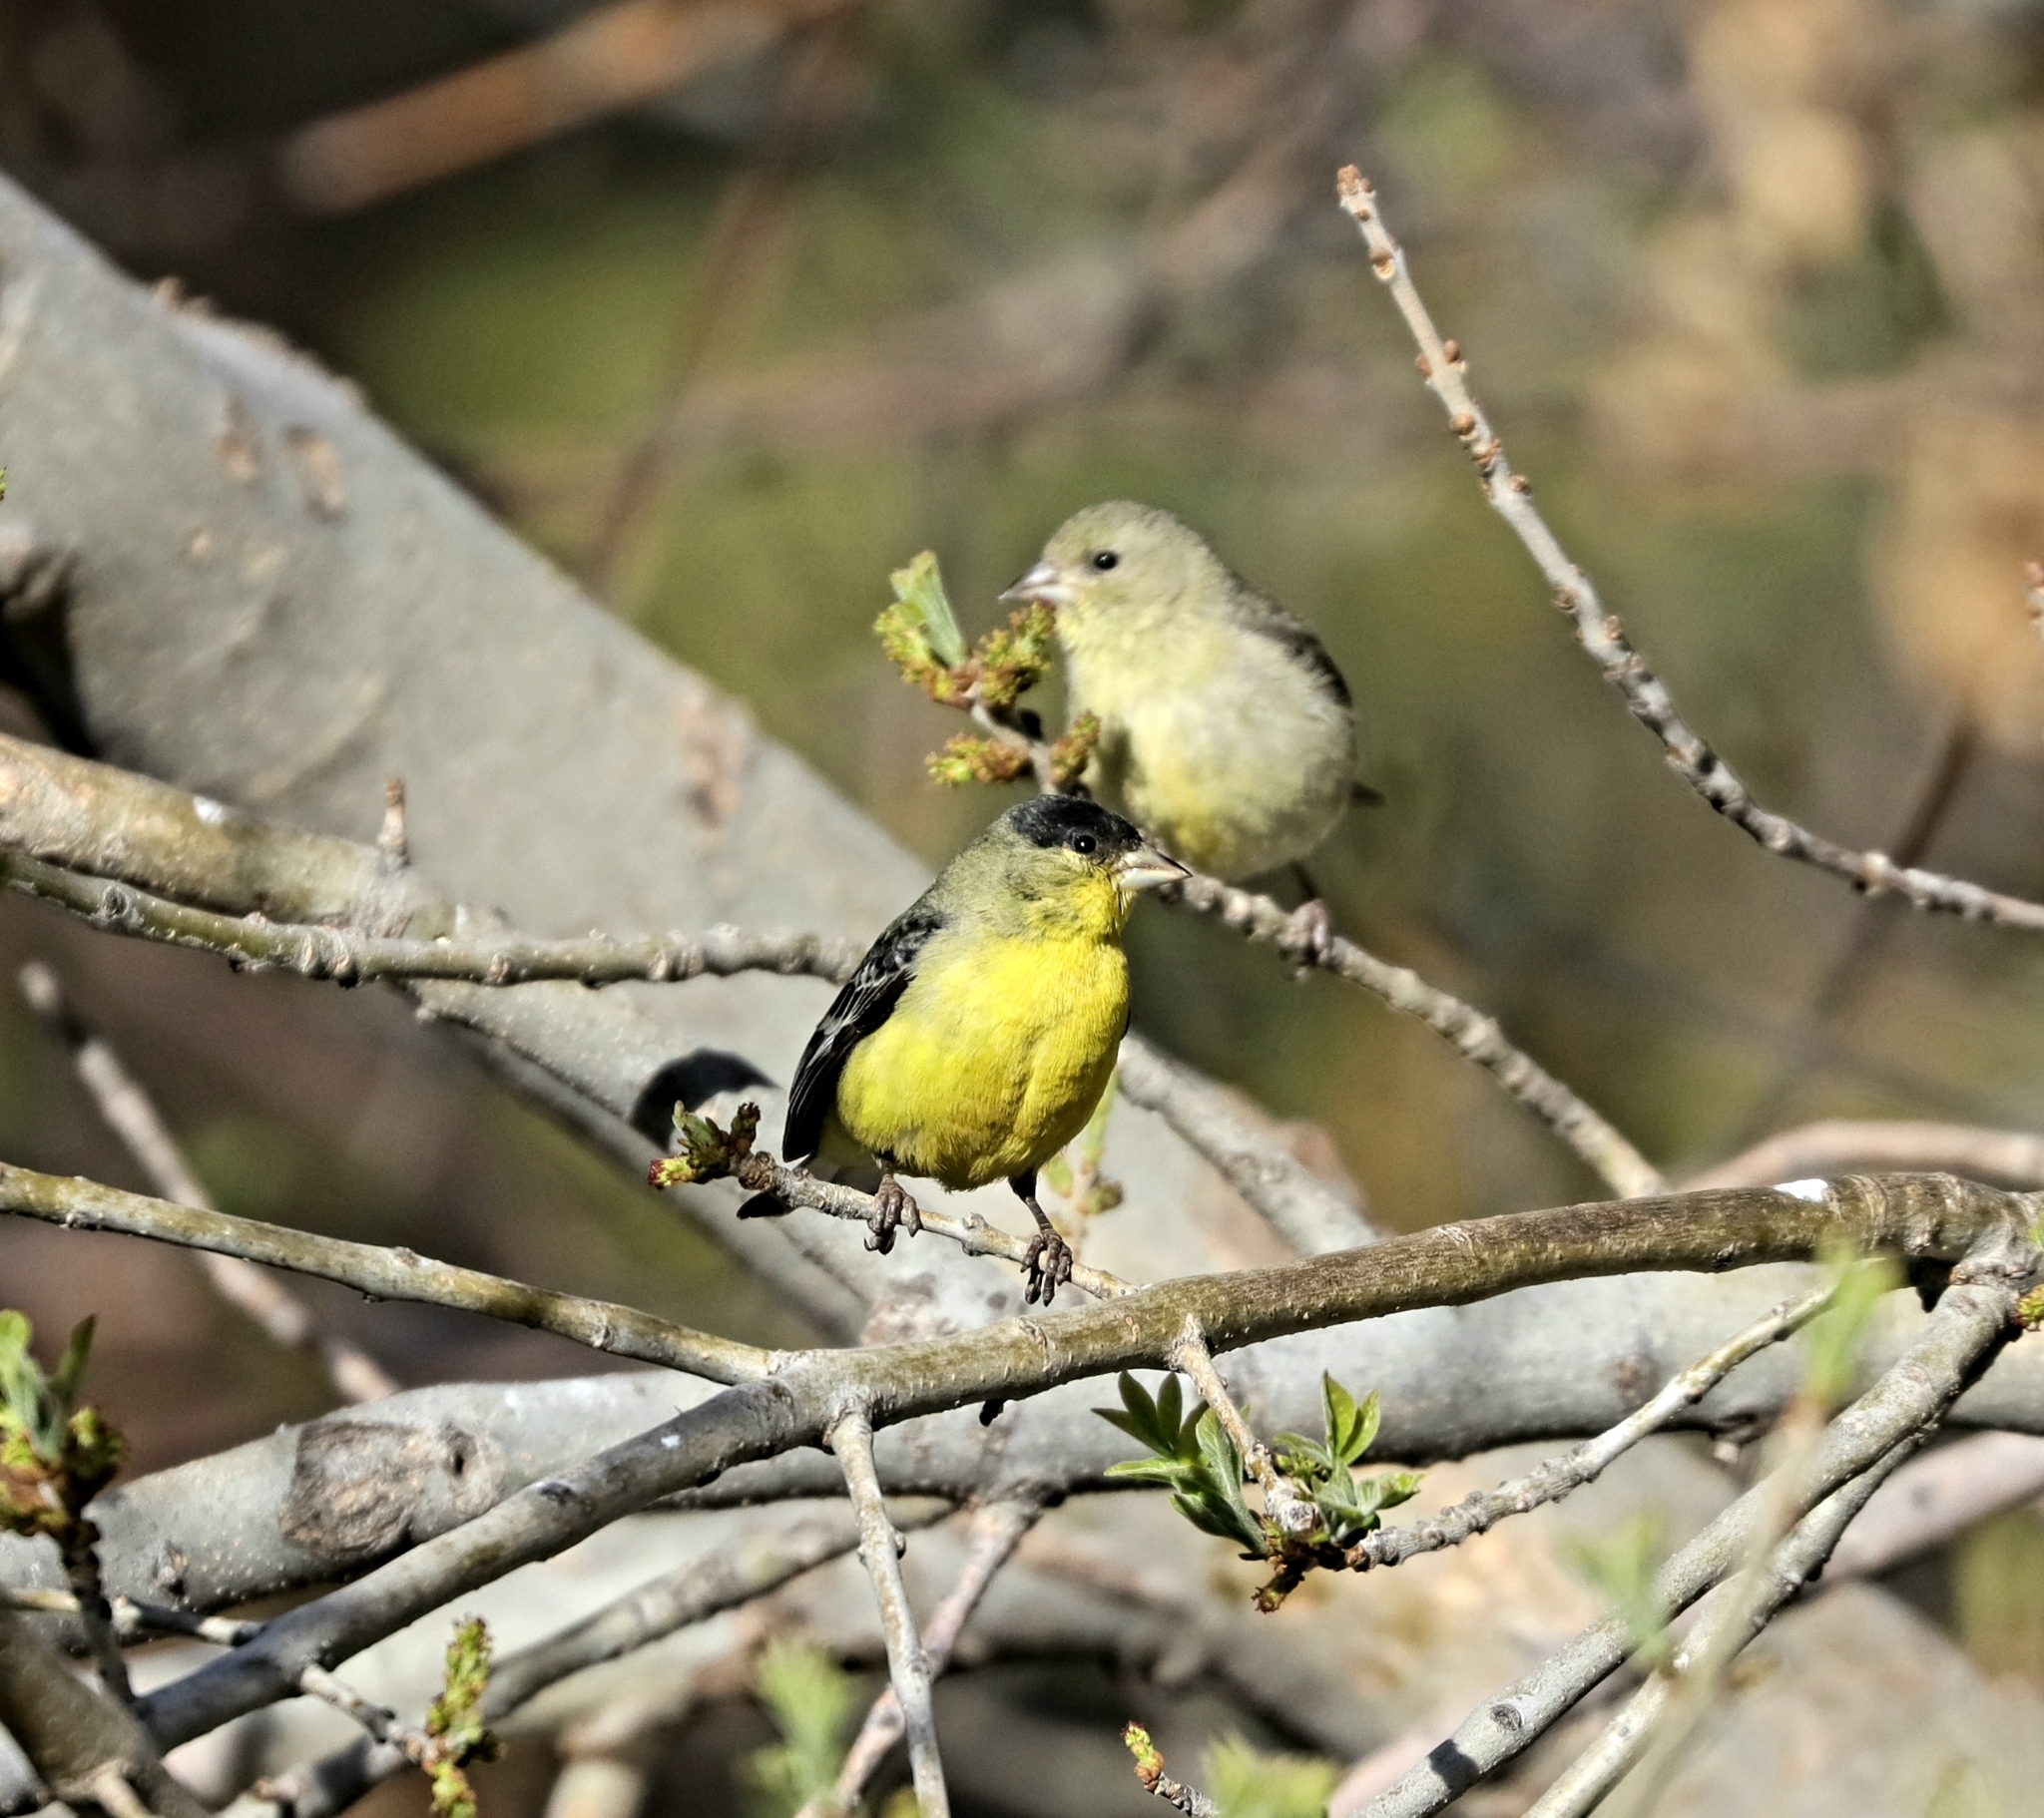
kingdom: Animalia
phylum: Chordata
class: Aves
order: Passeriformes
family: Fringillidae
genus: Spinus
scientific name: Spinus psaltria
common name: Lesser goldfinch
